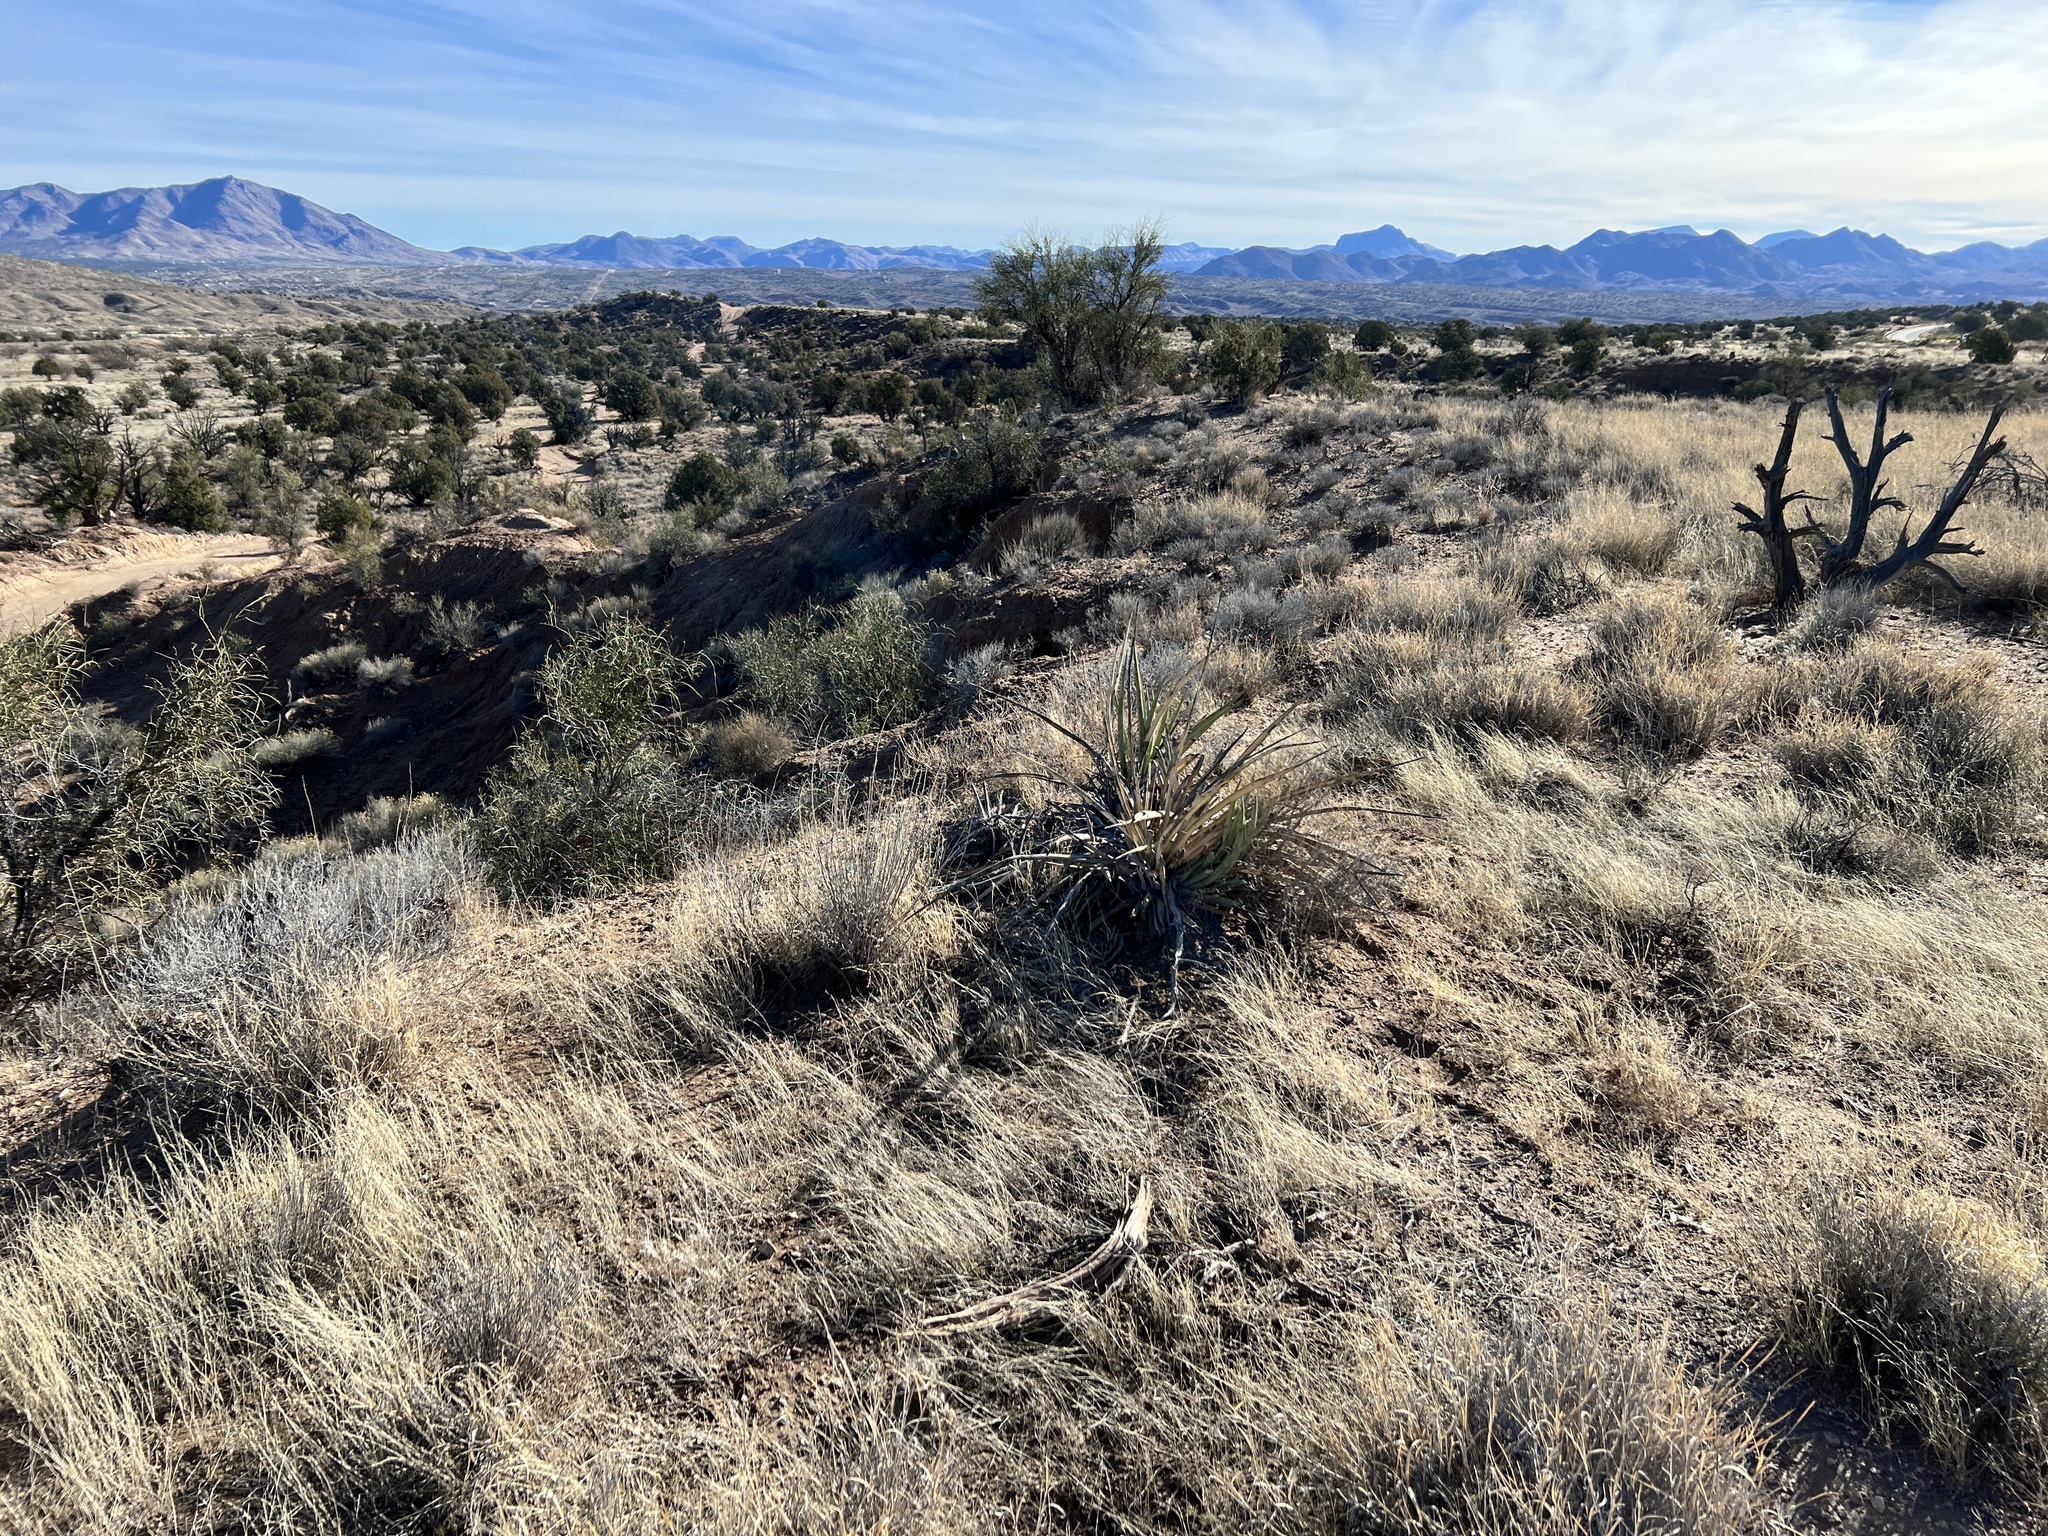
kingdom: Plantae
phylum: Tracheophyta
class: Liliopsida
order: Asparagales
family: Asparagaceae
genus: Yucca
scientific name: Yucca baccata
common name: Banana yucca
